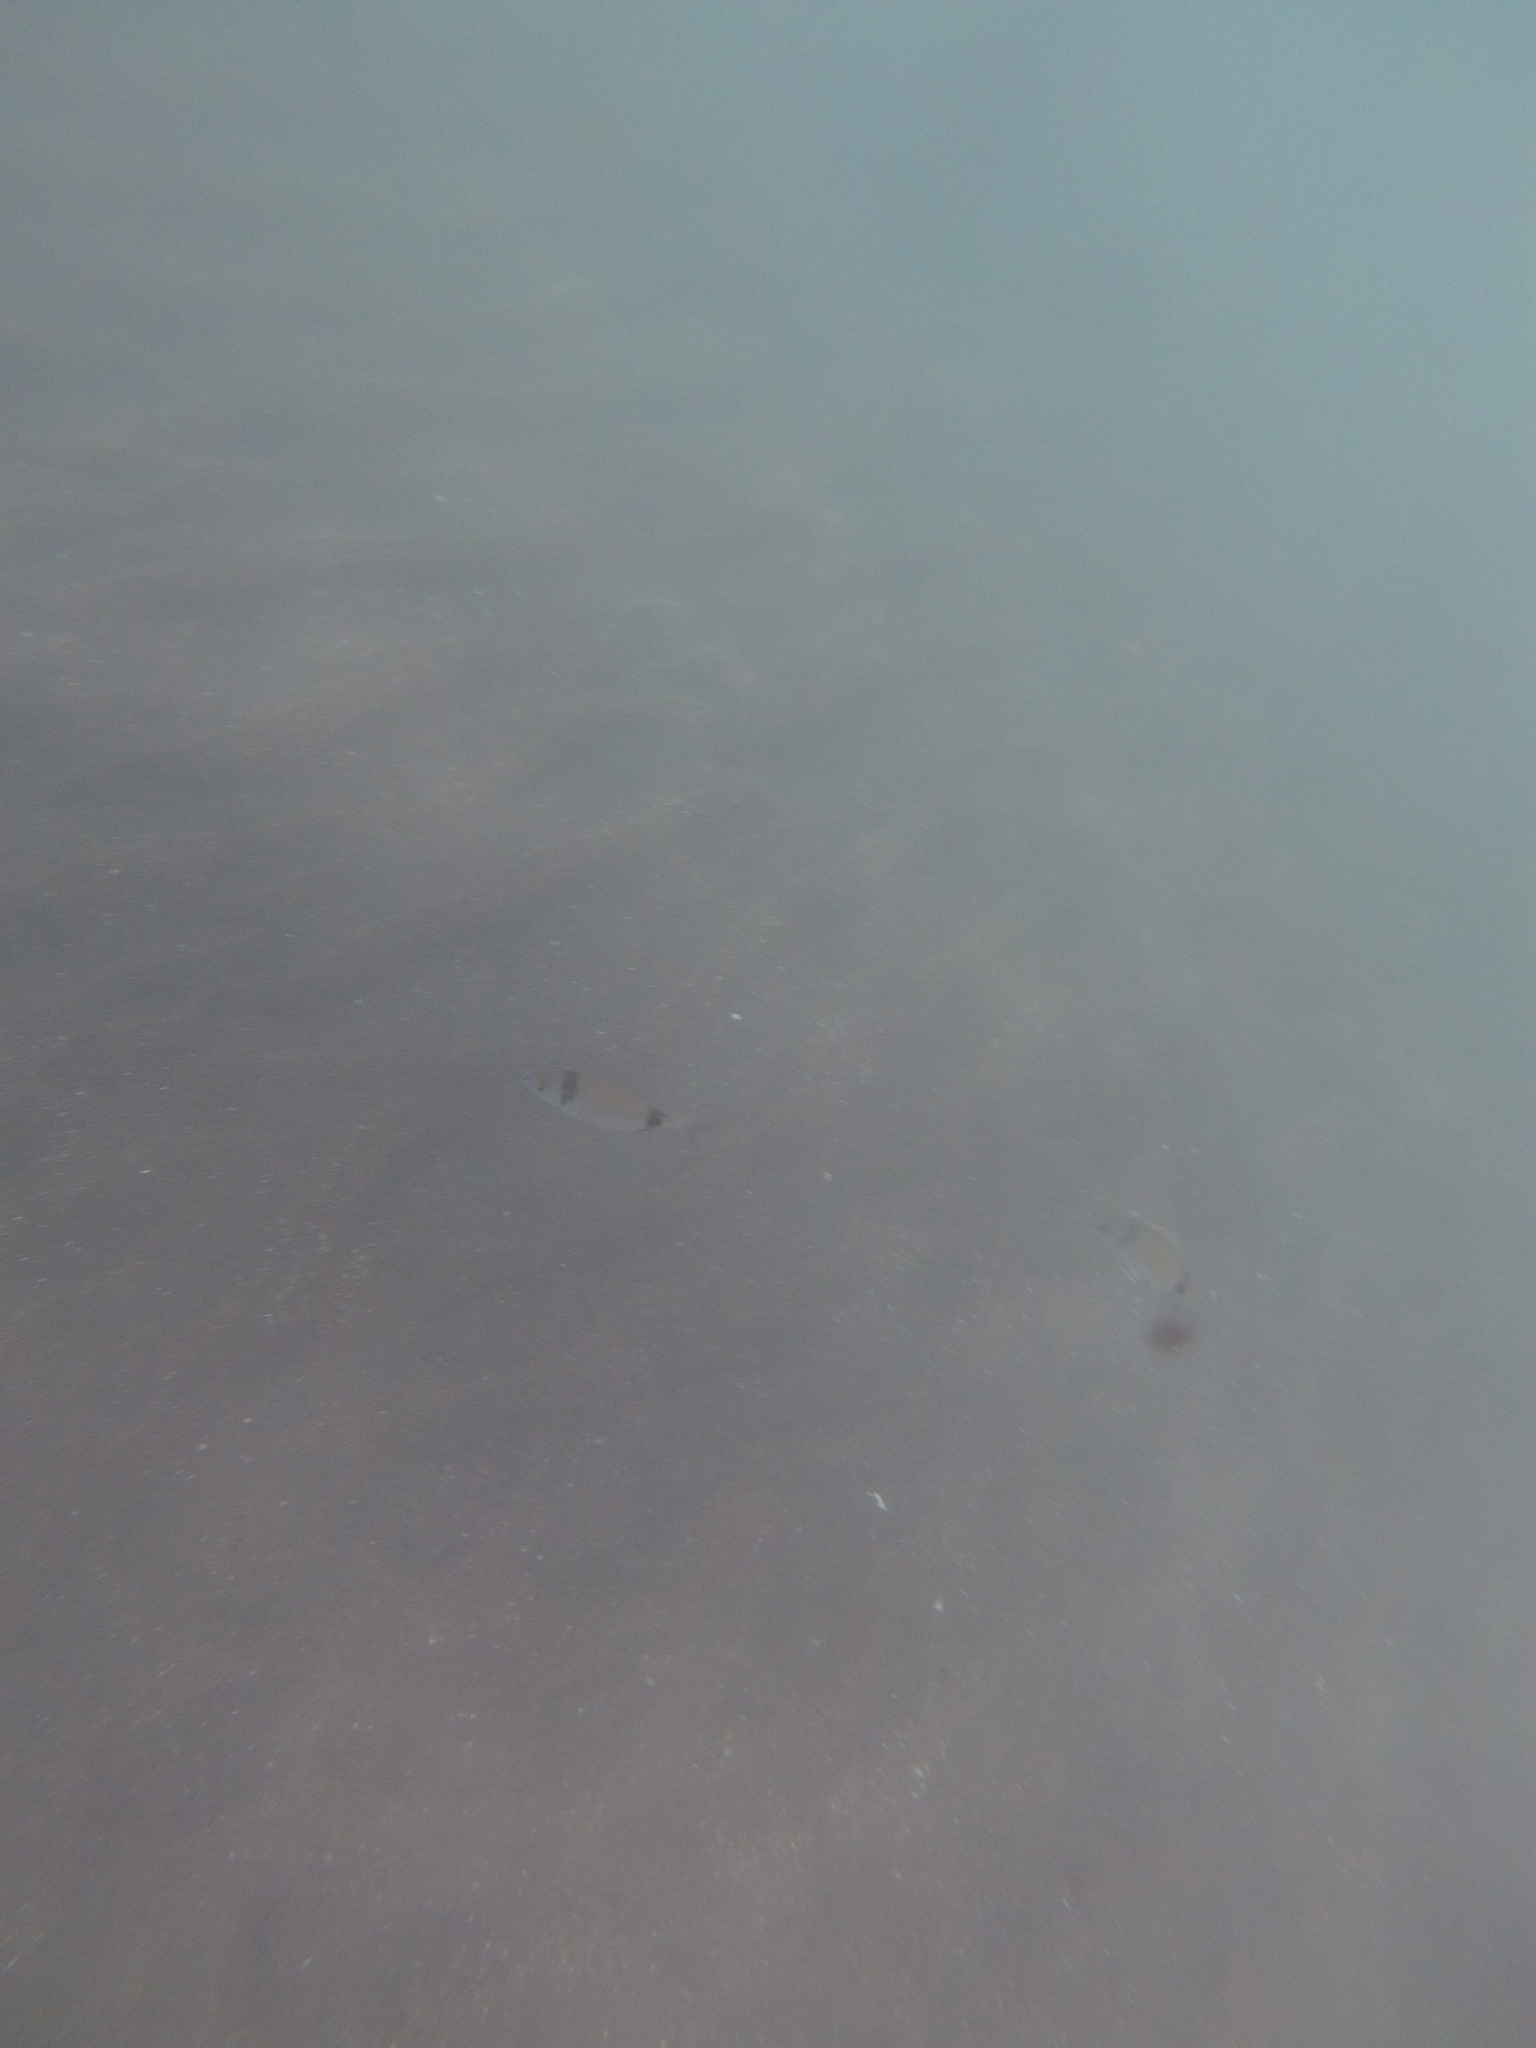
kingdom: Animalia
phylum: Chordata
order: Perciformes
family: Sparidae
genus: Diplodus
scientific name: Diplodus vulgaris
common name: Common two-banded seabream
